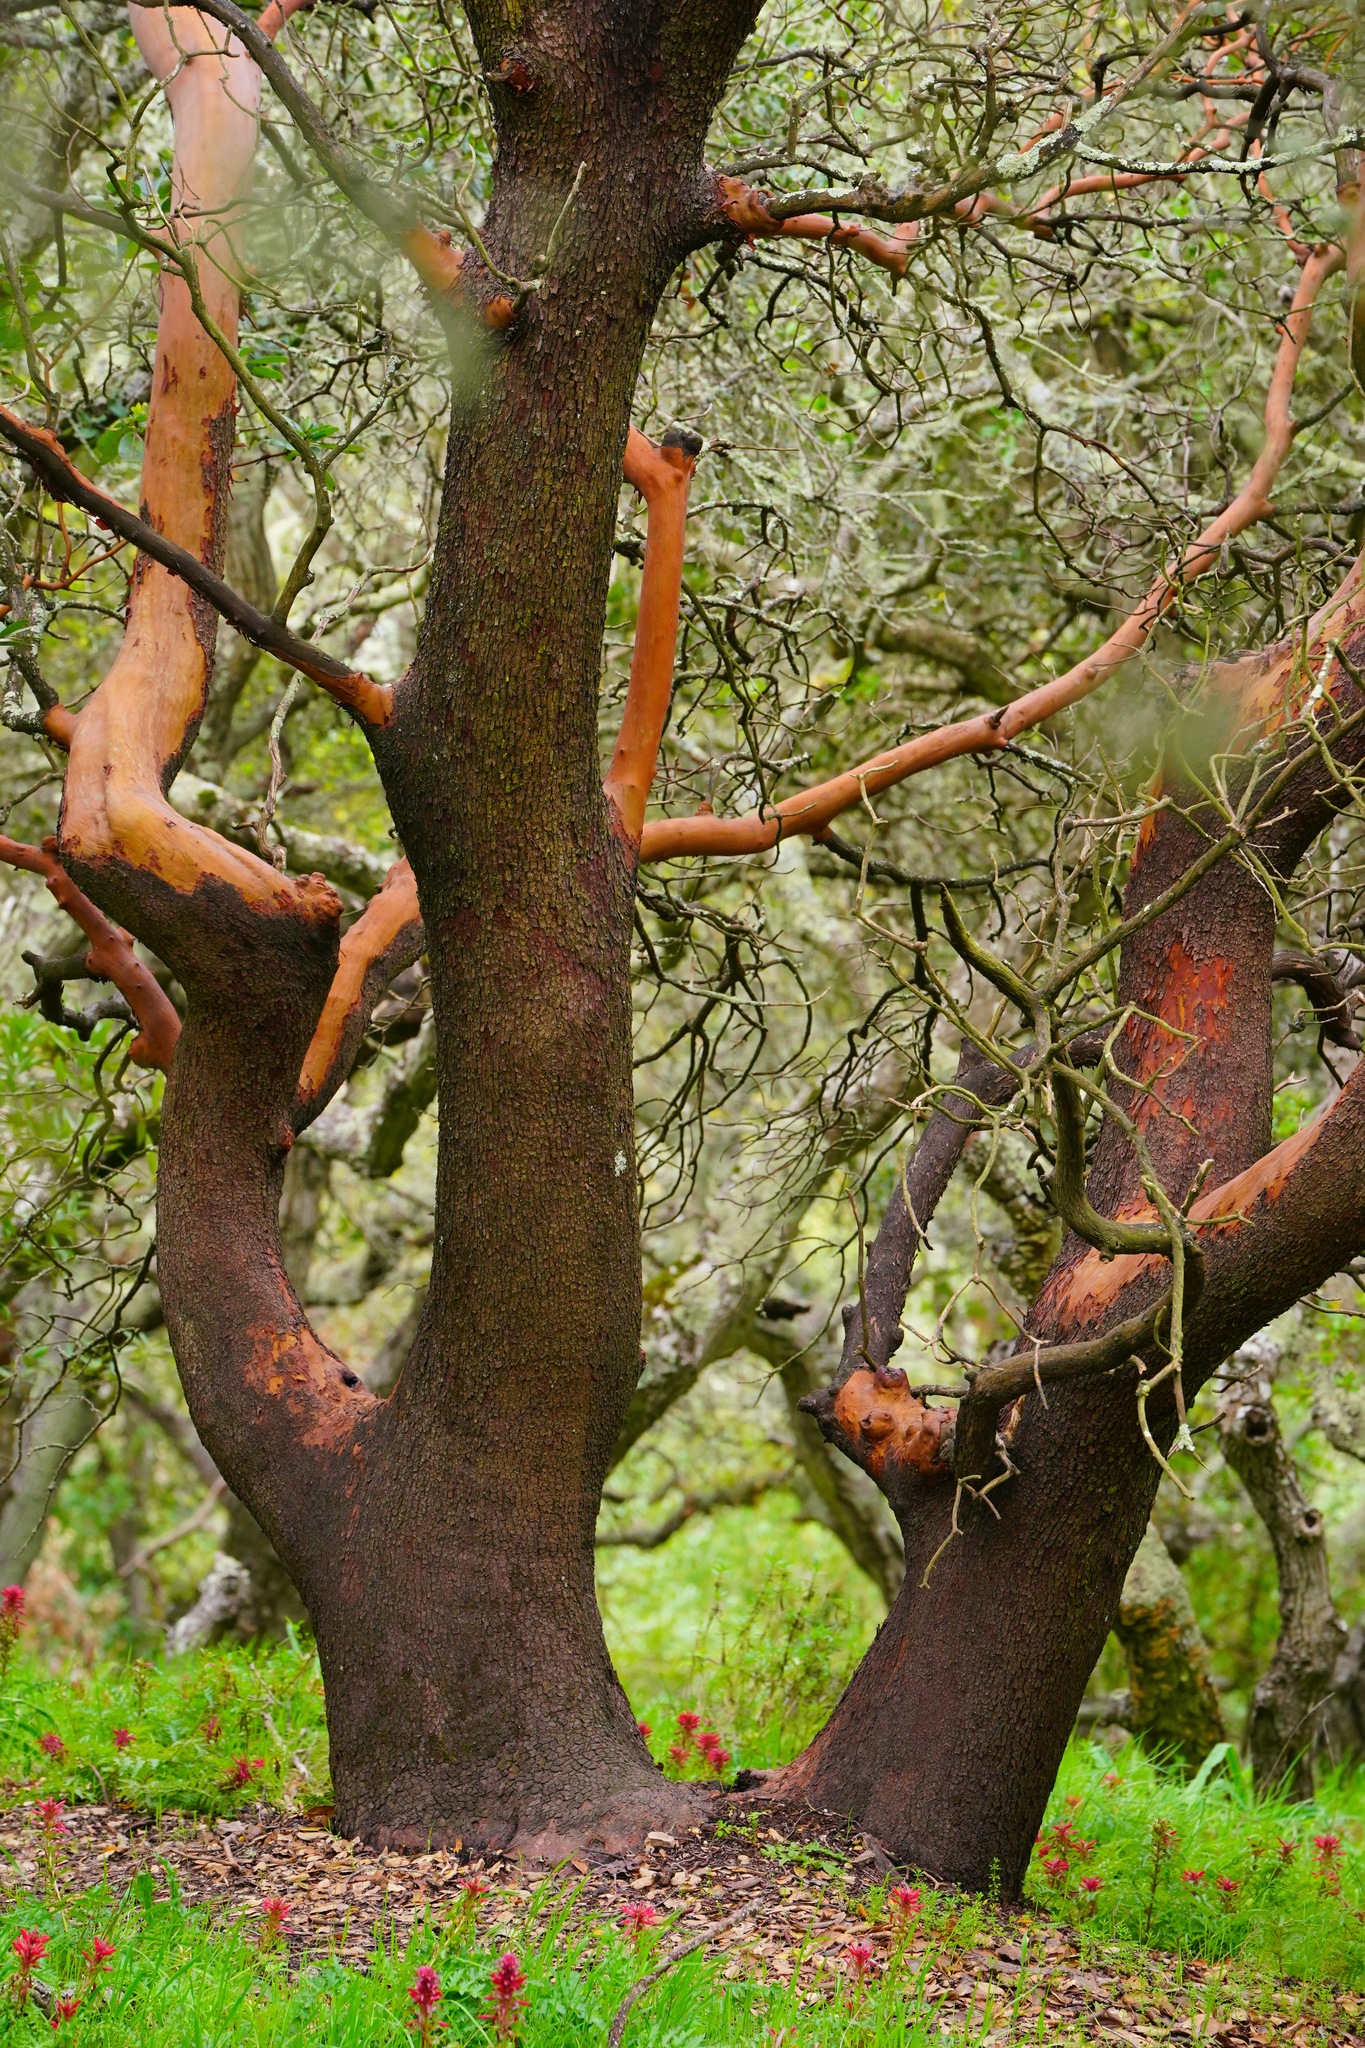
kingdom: Plantae
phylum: Tracheophyta
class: Magnoliopsida
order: Ericales
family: Ericaceae
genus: Arbutus
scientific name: Arbutus menziesii
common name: Pacific madrone
